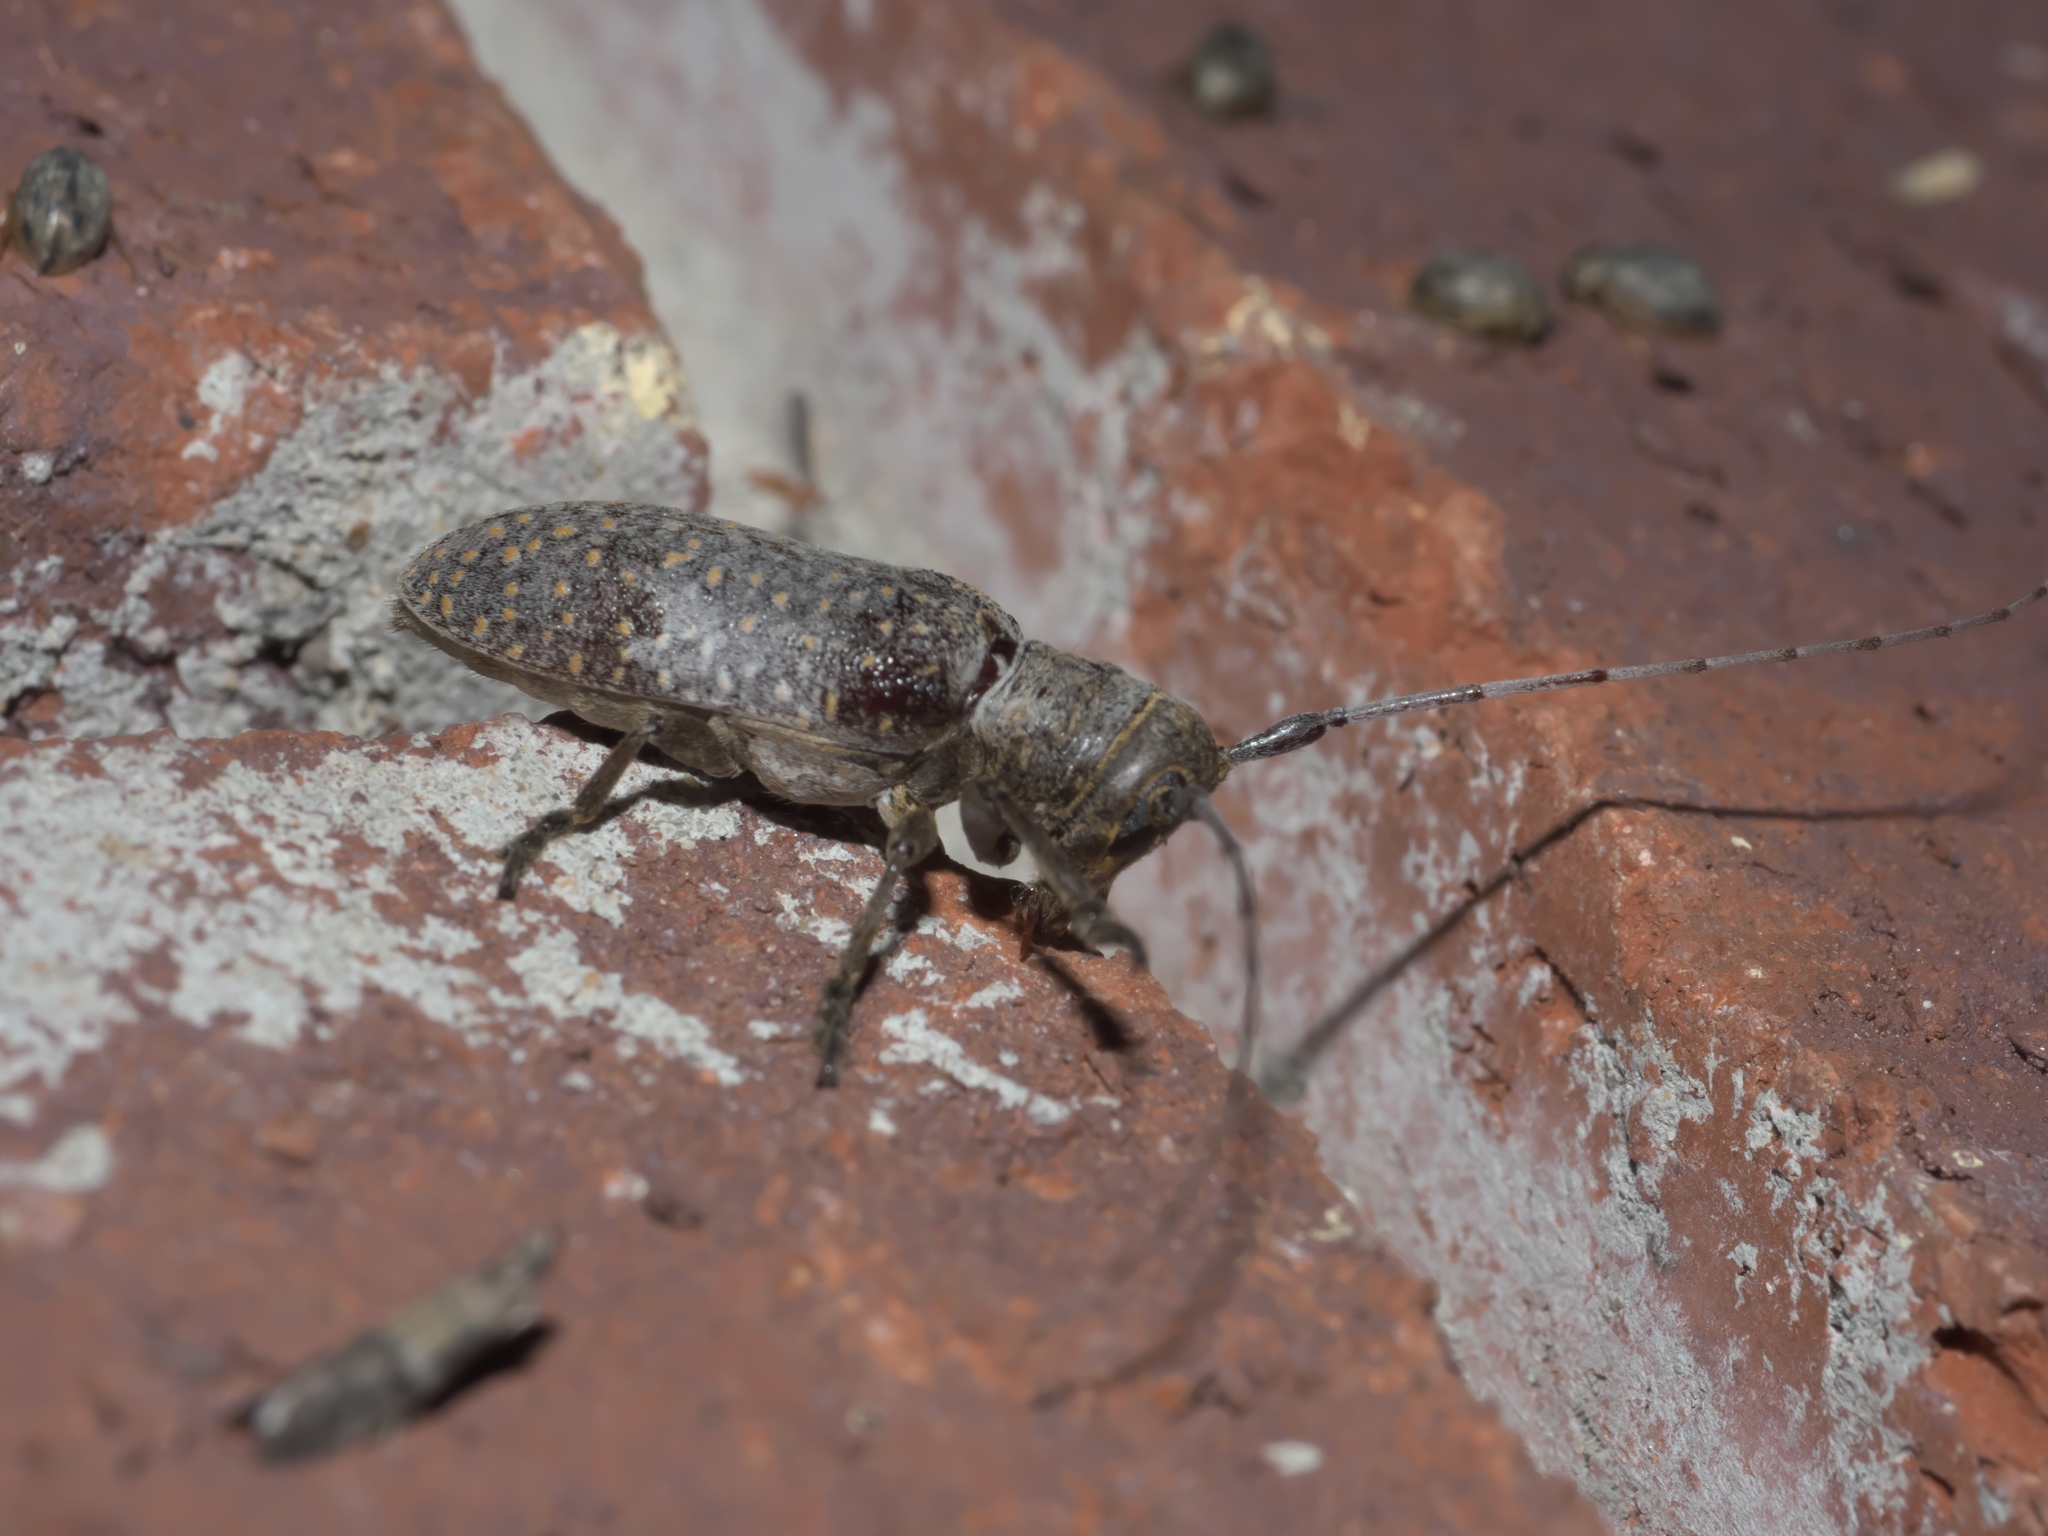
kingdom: Animalia
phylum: Arthropoda
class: Insecta
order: Coleoptera
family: Cerambycidae
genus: Oncideres
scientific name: Oncideres cingulata
